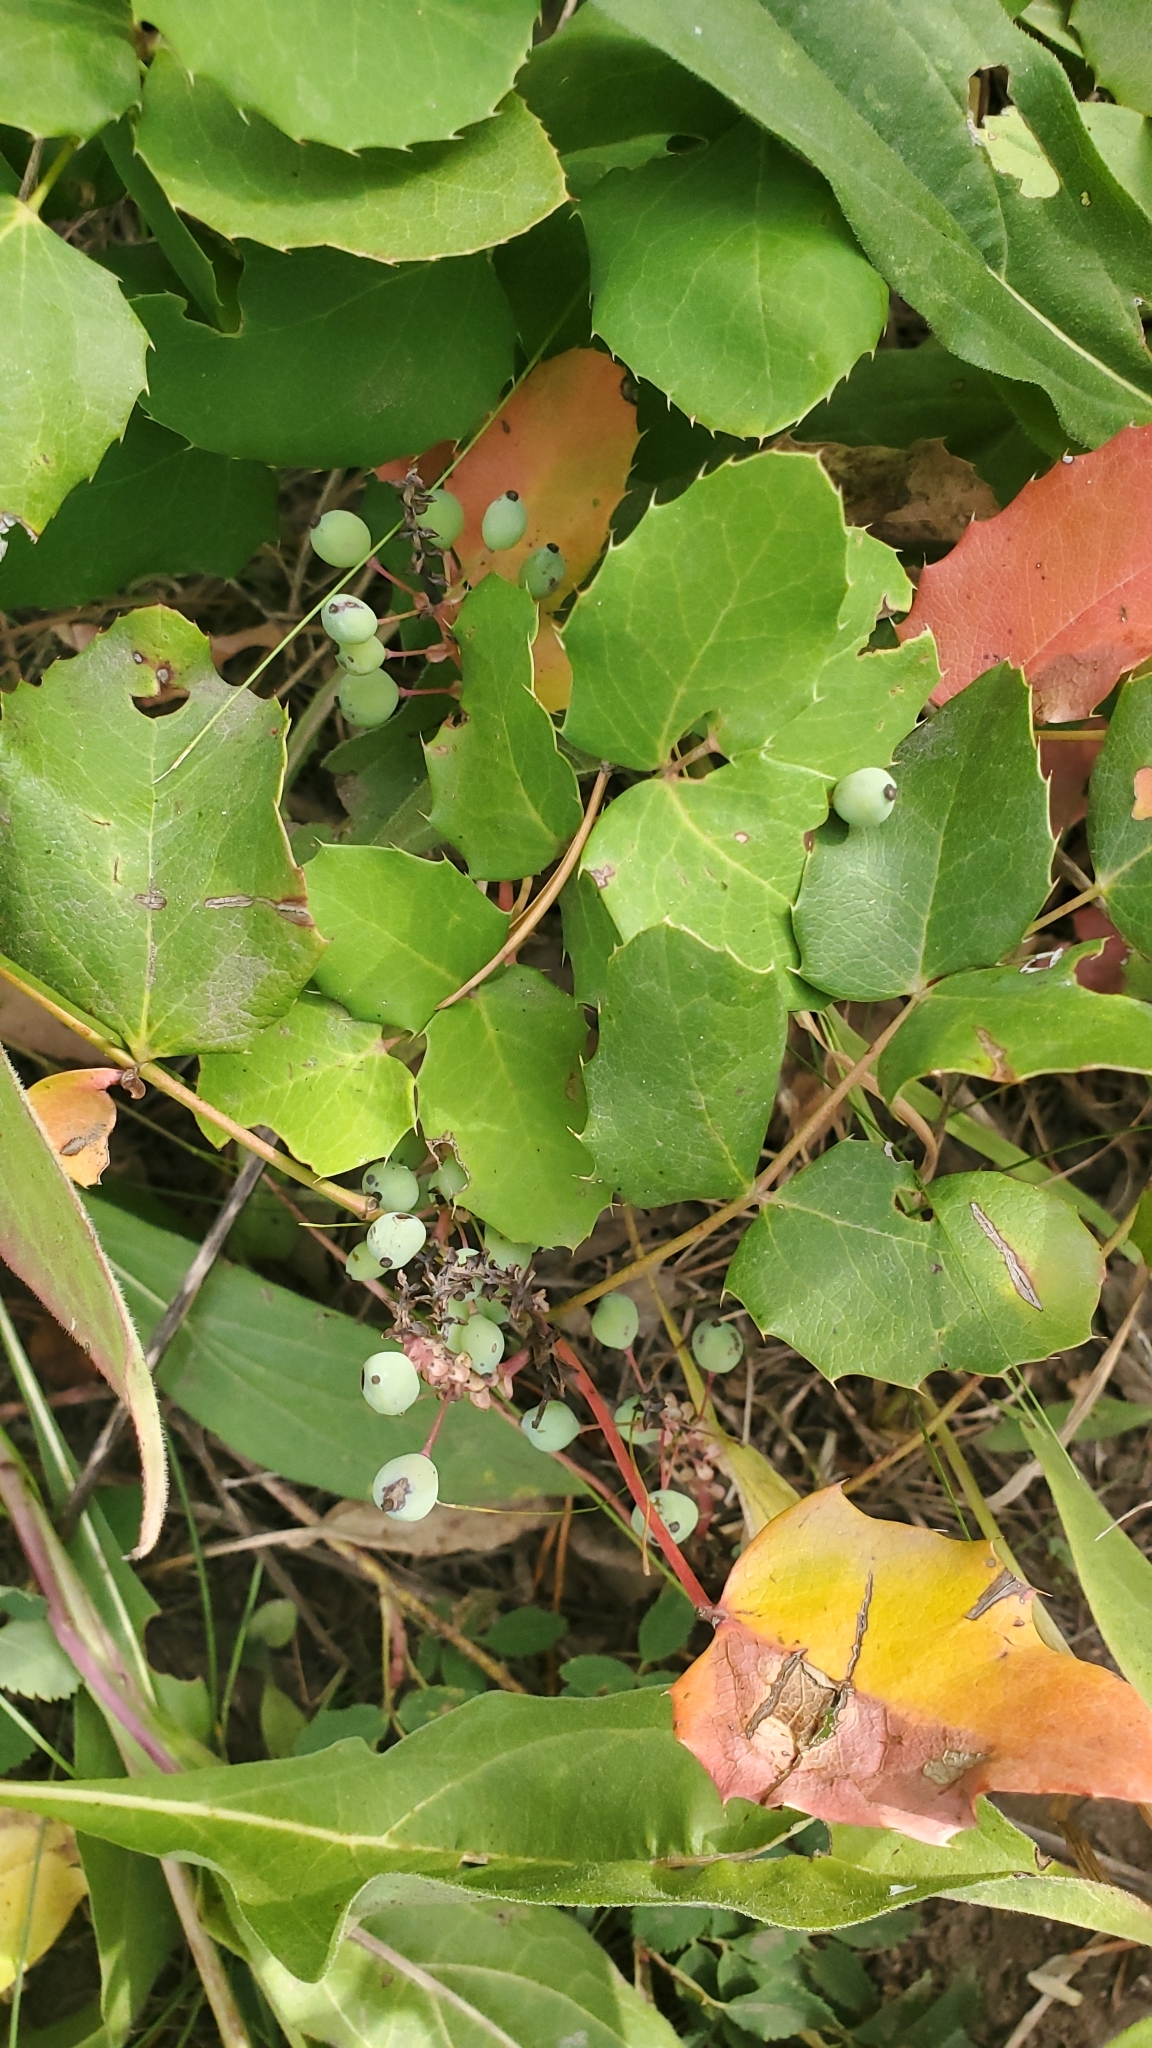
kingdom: Plantae
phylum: Tracheophyta
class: Magnoliopsida
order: Ranunculales
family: Berberidaceae
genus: Mahonia
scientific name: Mahonia repens
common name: Creeping oregon-grape
